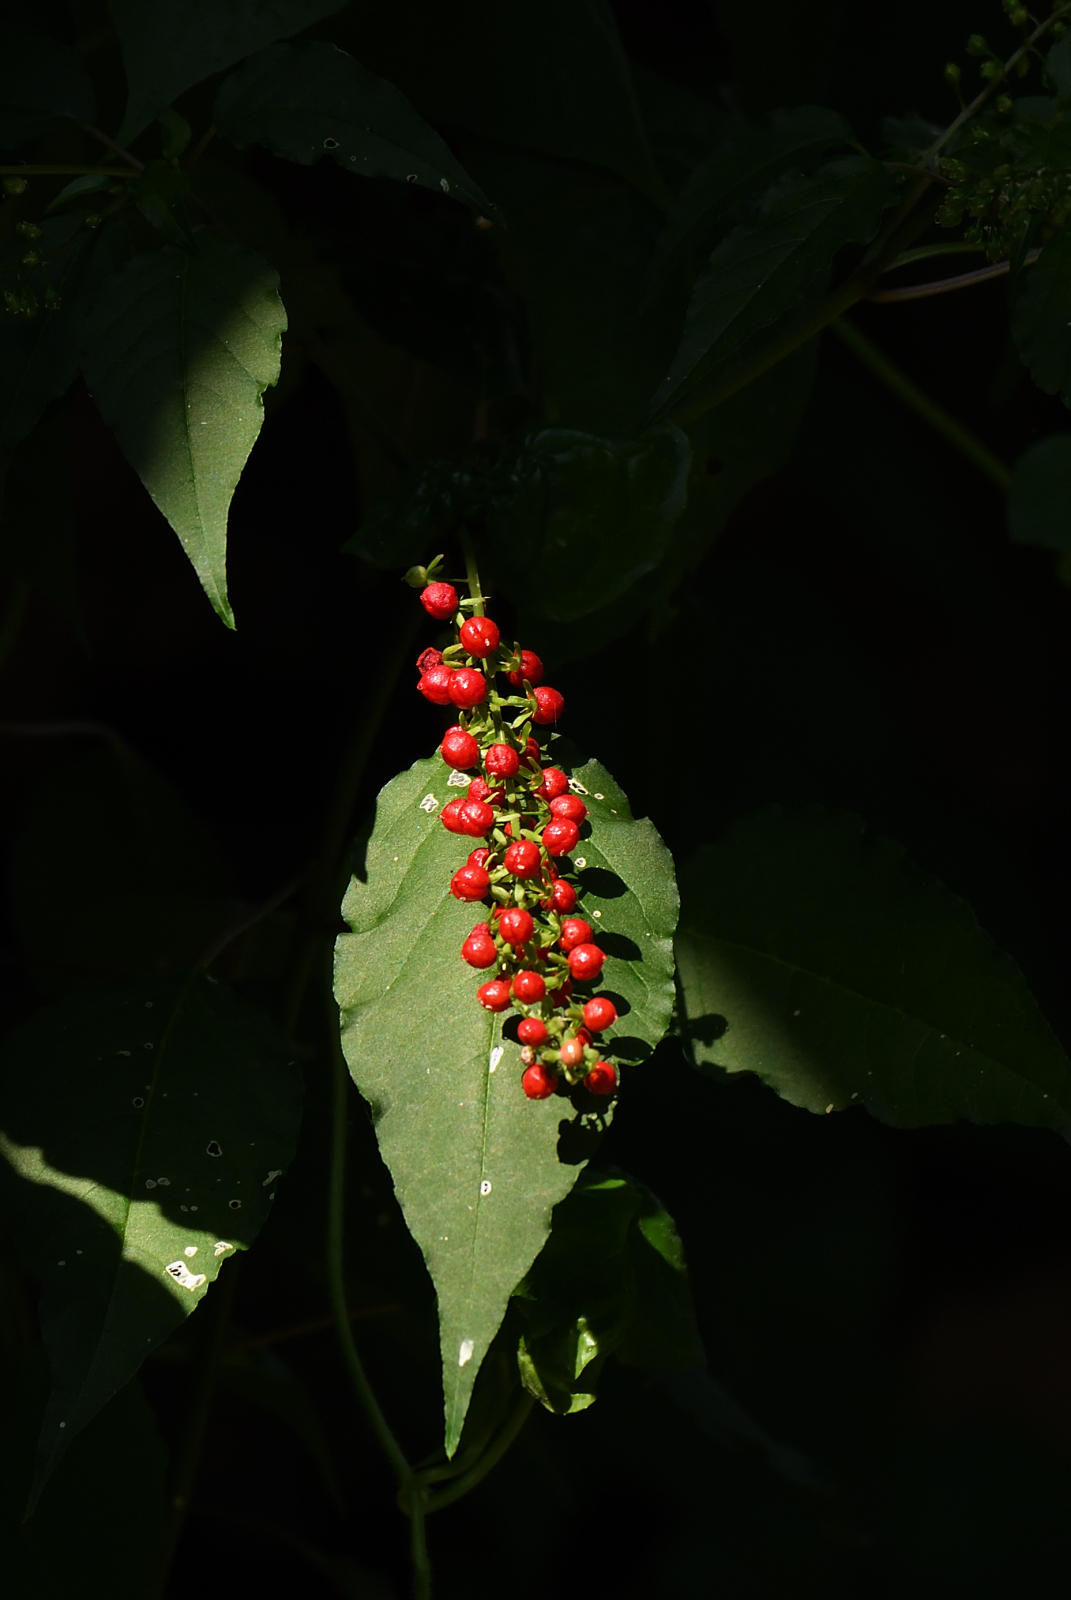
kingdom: Plantae
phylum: Tracheophyta
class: Magnoliopsida
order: Caryophyllales
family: Phytolaccaceae
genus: Rivina
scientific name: Rivina humilis
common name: Rougeplant
